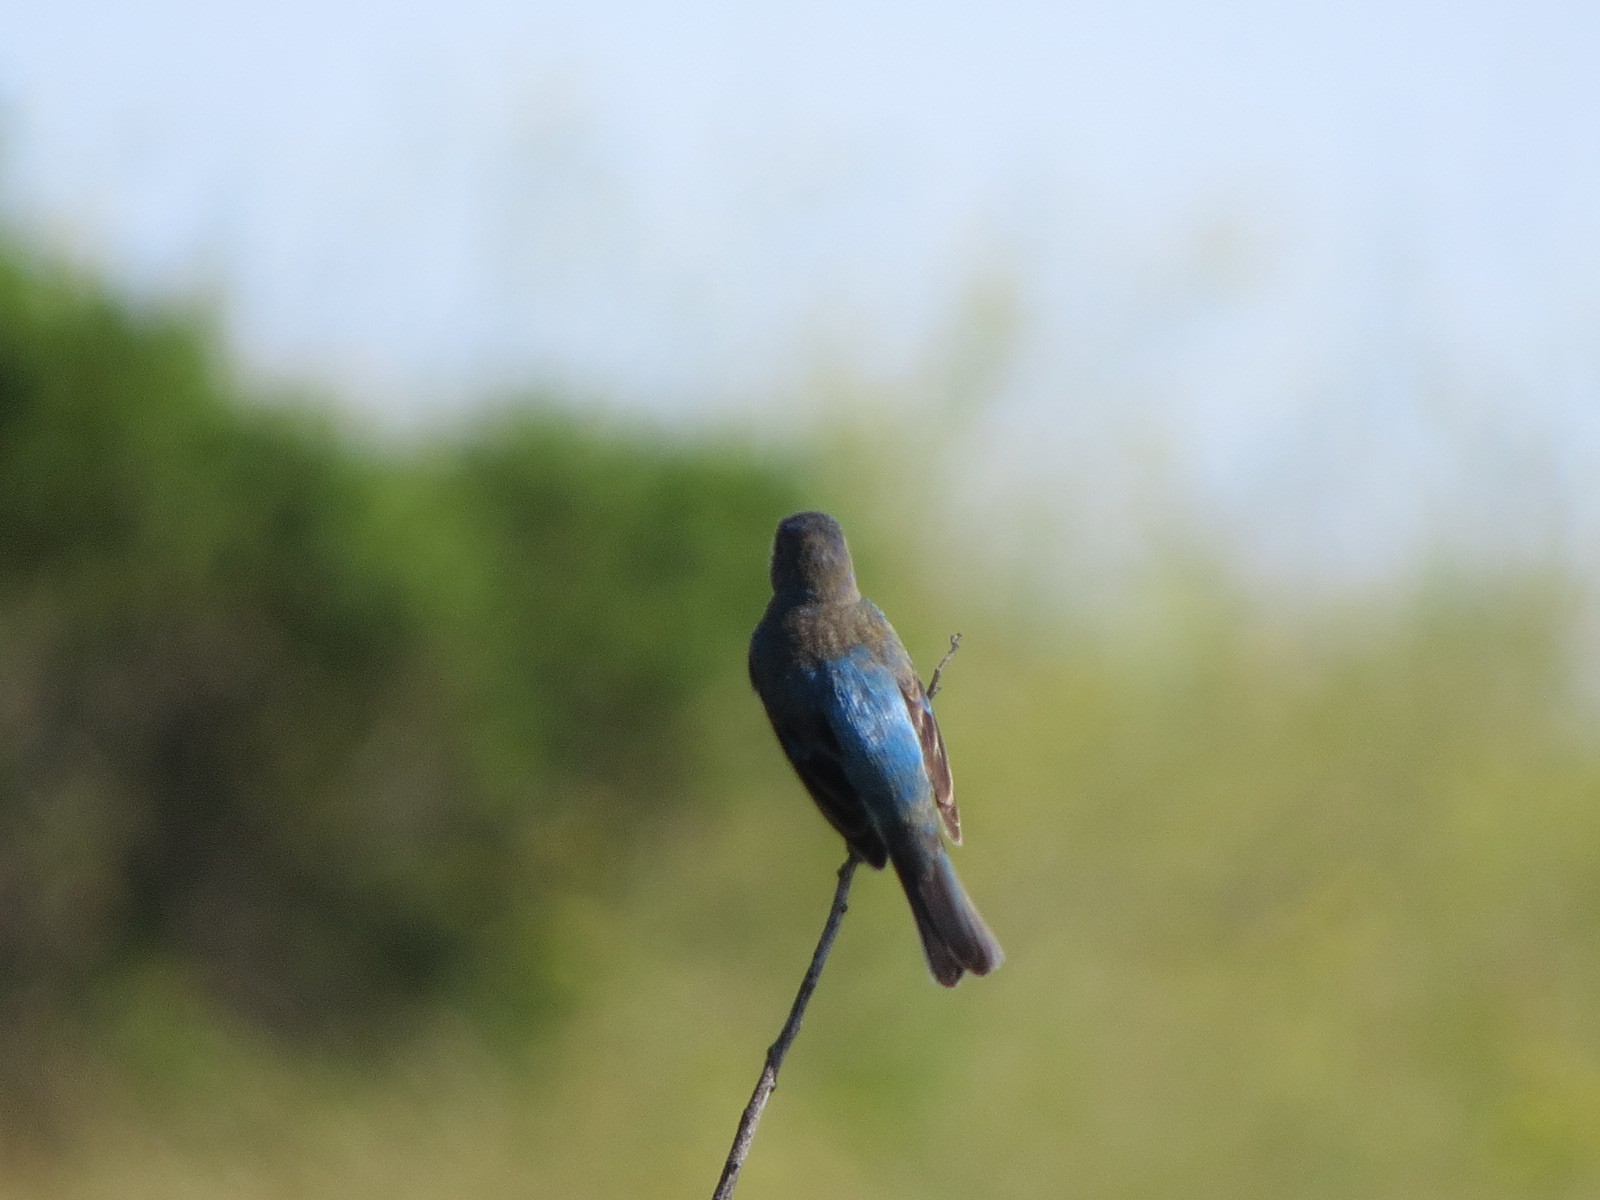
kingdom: Animalia
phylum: Chordata
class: Aves
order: Passeriformes
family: Cardinalidae
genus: Passerina
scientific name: Passerina cyanea
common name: Indigo bunting
